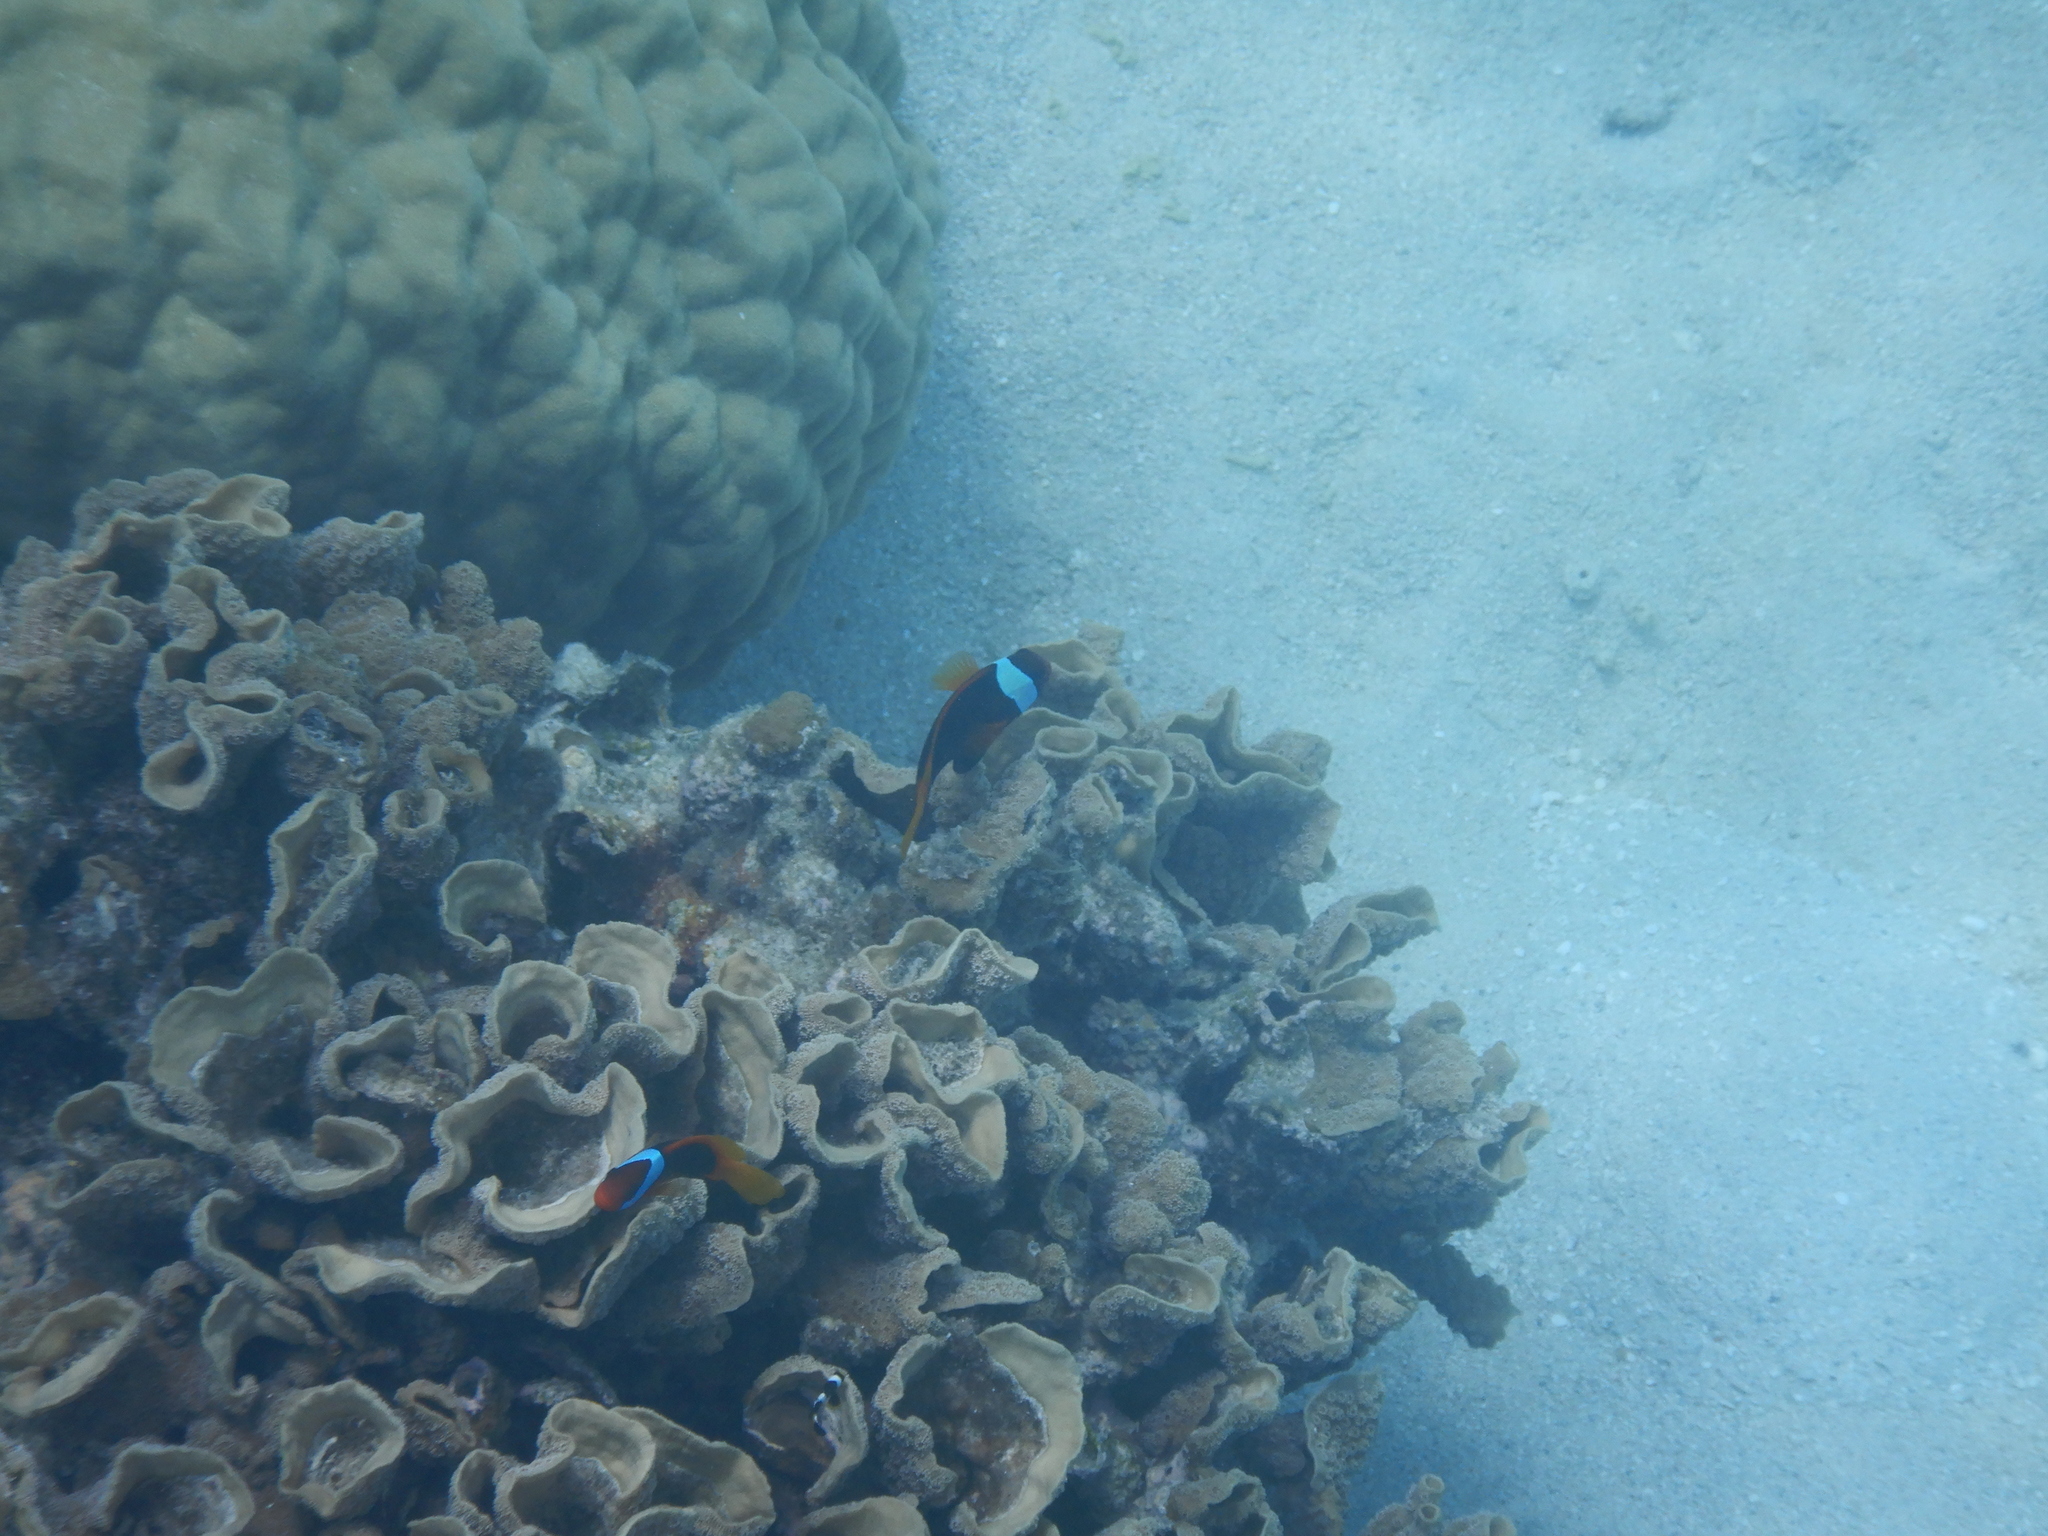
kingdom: Animalia
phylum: Chordata
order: Perciformes
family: Pomacentridae
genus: Amphiprion
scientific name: Amphiprion melanopus
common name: Black anemonefish
